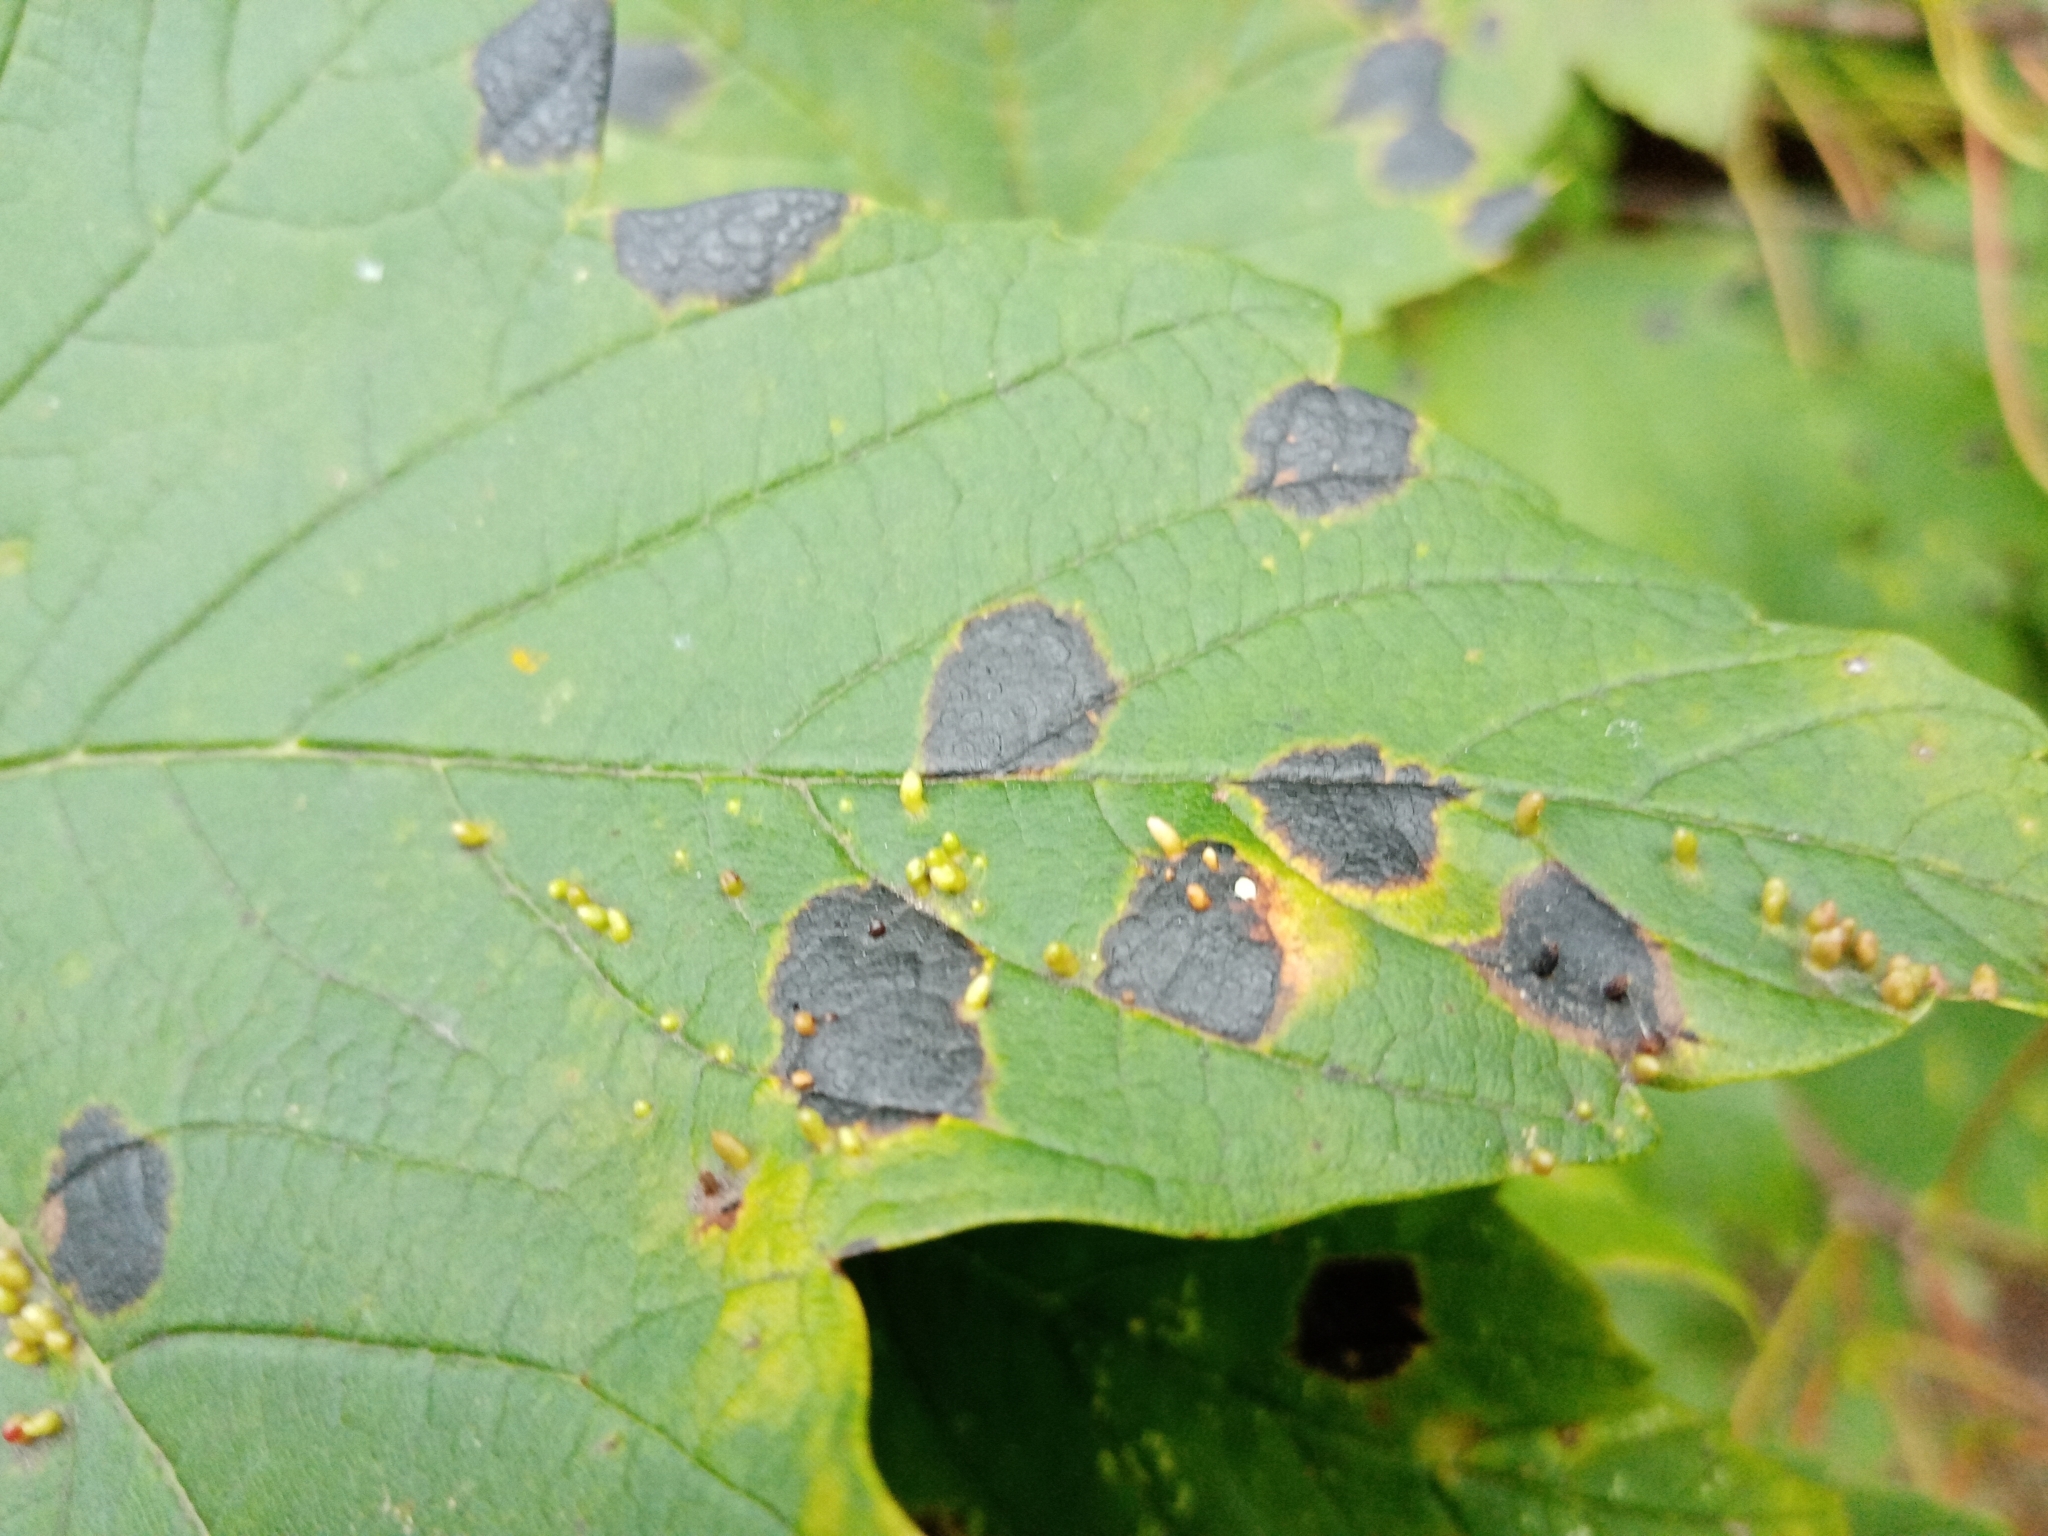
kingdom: Animalia
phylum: Arthropoda
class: Arachnida
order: Trombidiformes
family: Eriophyidae
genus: Aceria
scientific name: Aceria macrorhynchus
